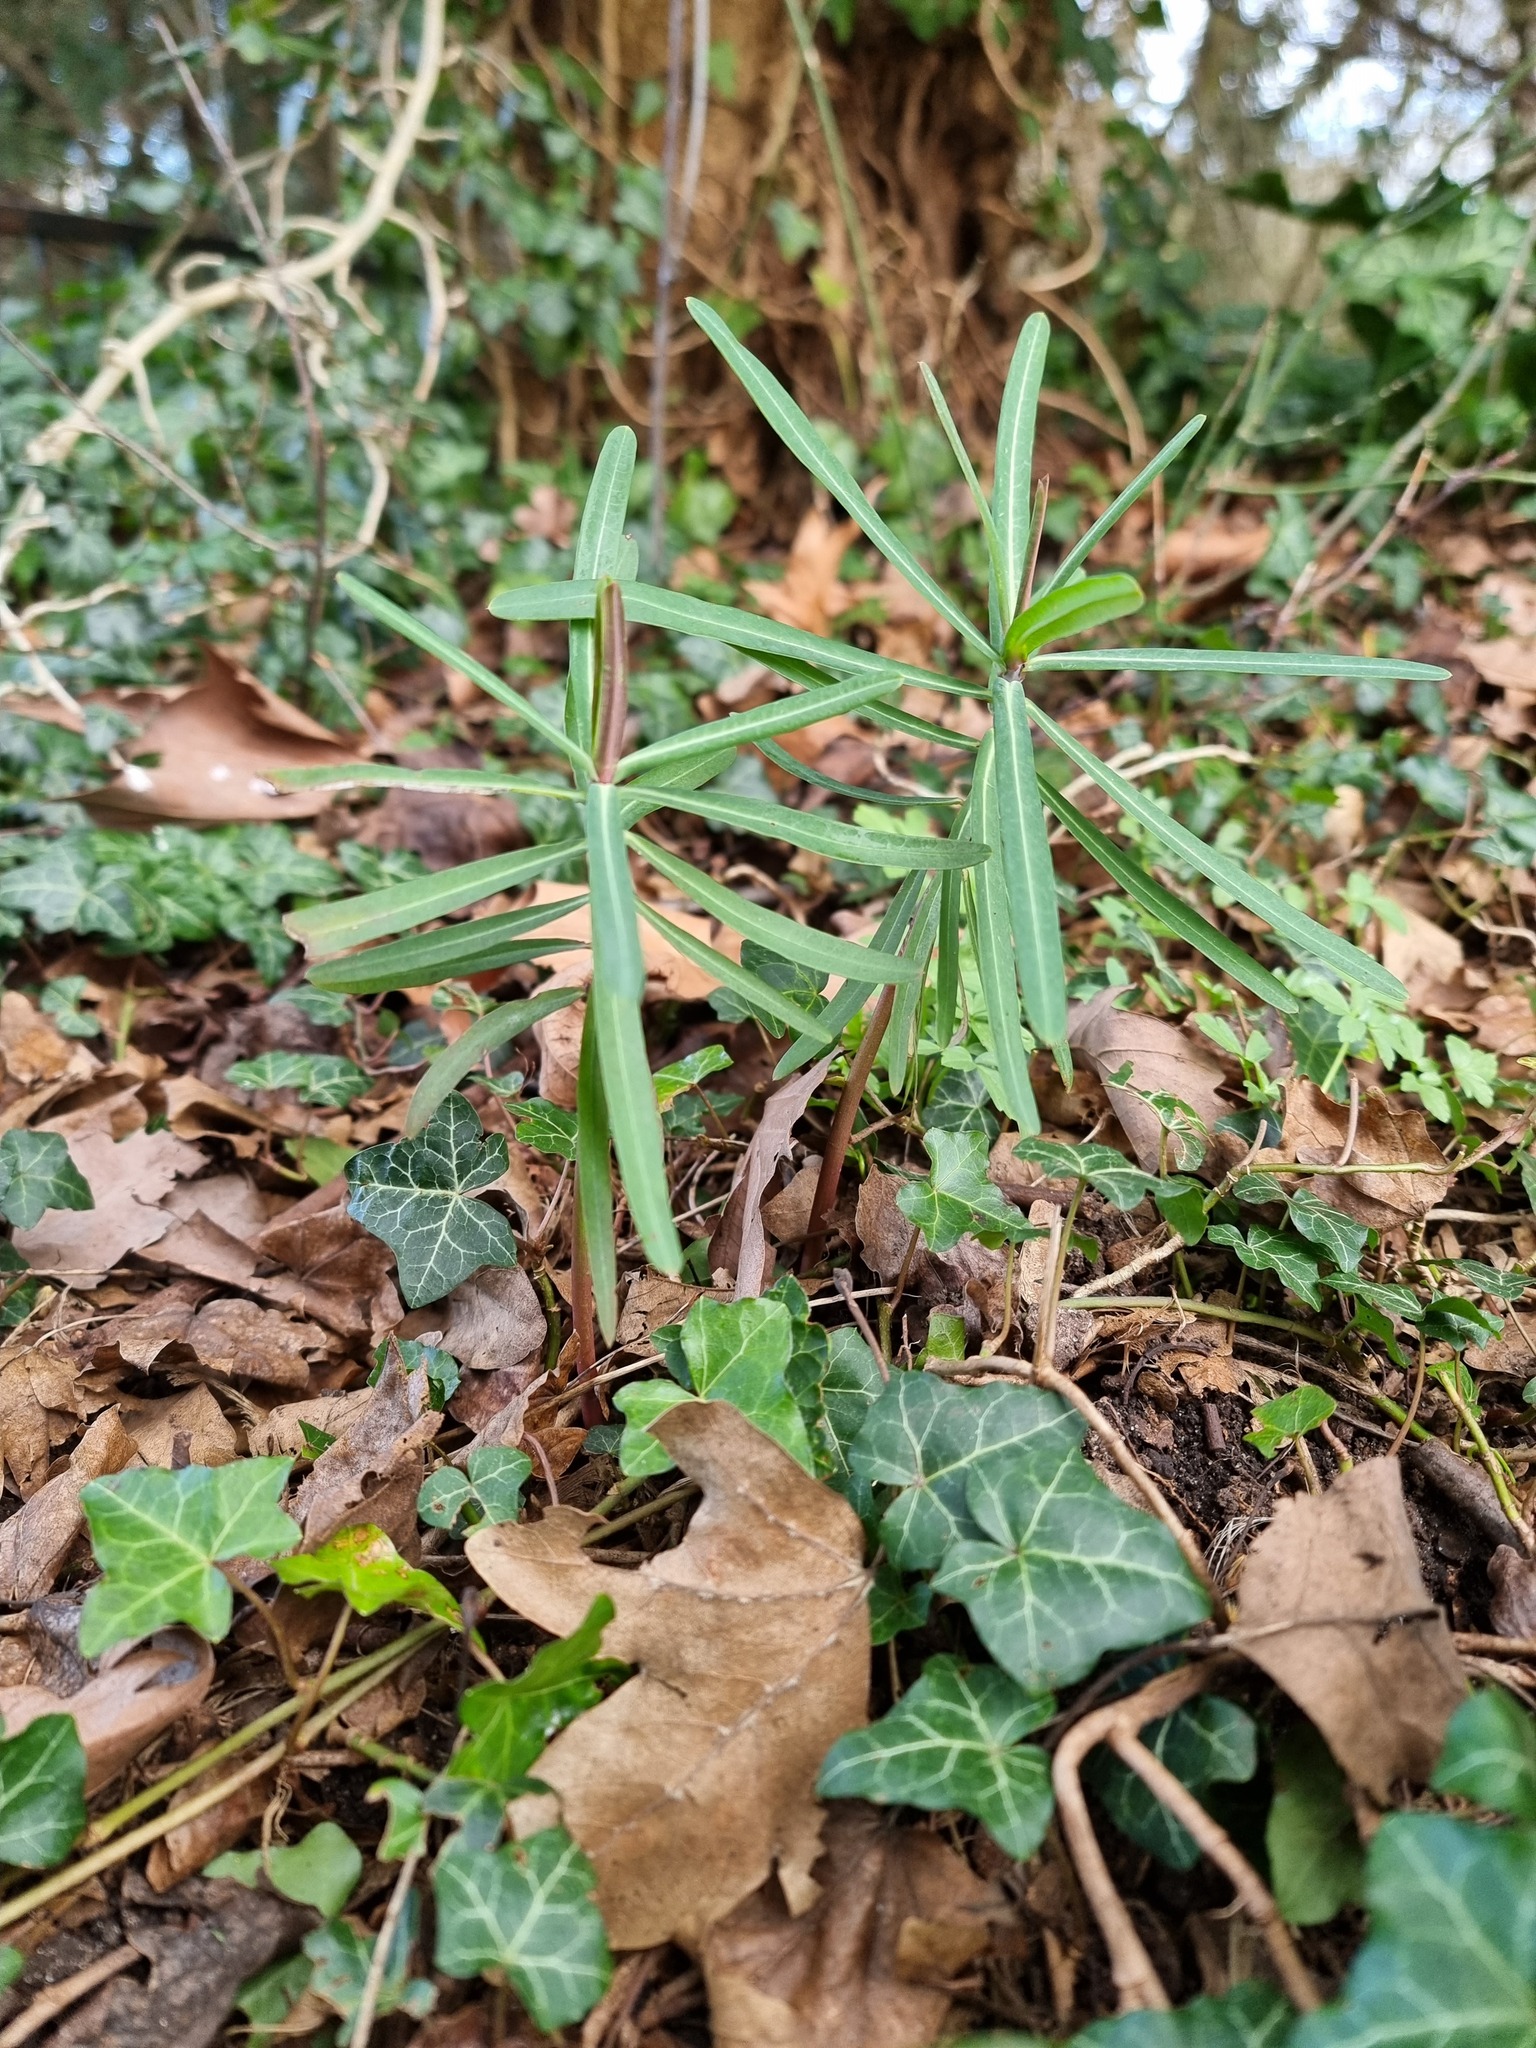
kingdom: Plantae
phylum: Tracheophyta
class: Magnoliopsida
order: Malpighiales
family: Euphorbiaceae
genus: Euphorbia
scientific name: Euphorbia lathyris
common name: Caper spurge
